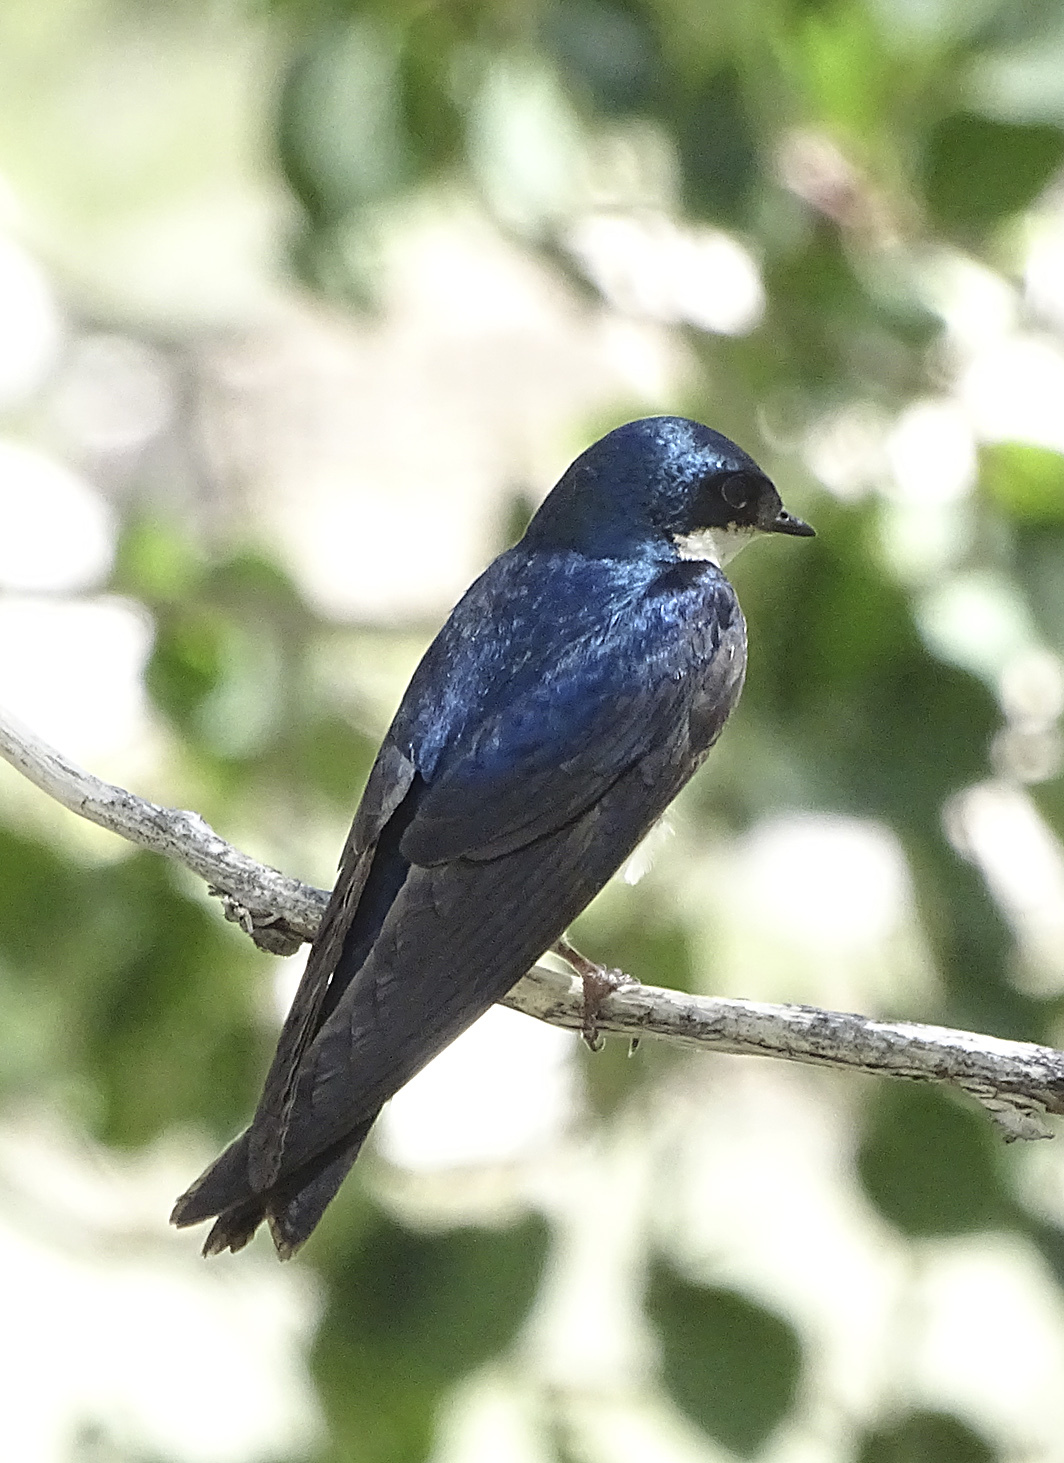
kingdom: Animalia
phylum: Chordata
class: Aves
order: Passeriformes
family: Hirundinidae
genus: Tachycineta
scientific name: Tachycineta bicolor
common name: Tree swallow
